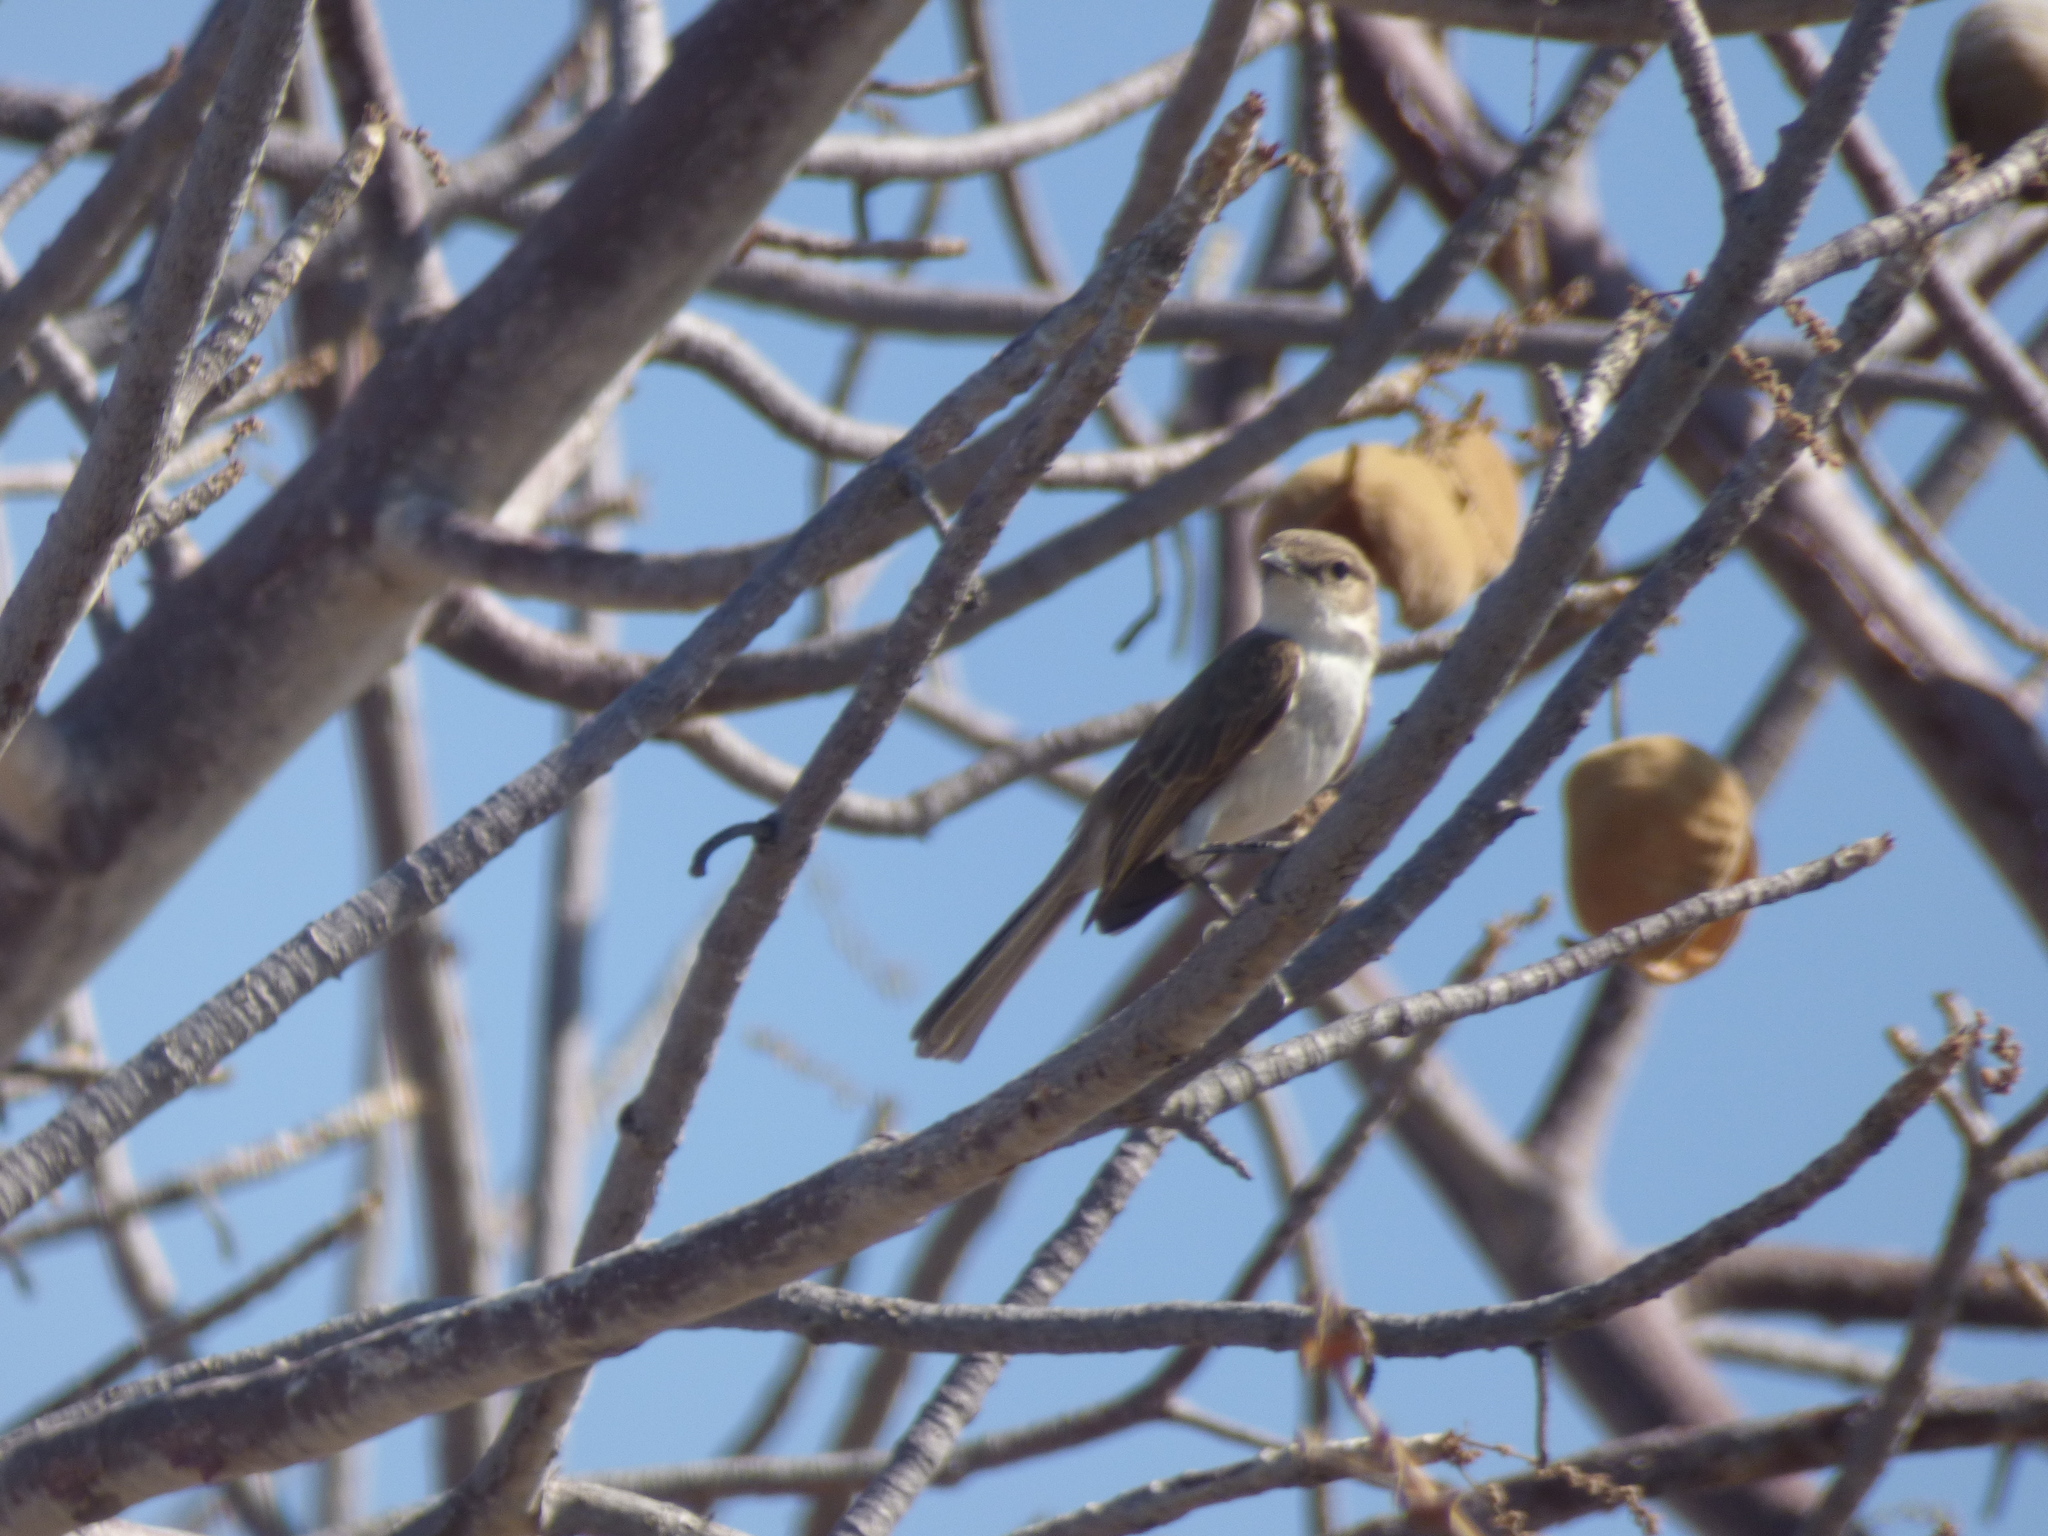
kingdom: Animalia
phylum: Chordata
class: Aves
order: Passeriformes
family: Muscicapidae
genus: Bradornis
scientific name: Bradornis mariquensis
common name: Marico flycatcher
